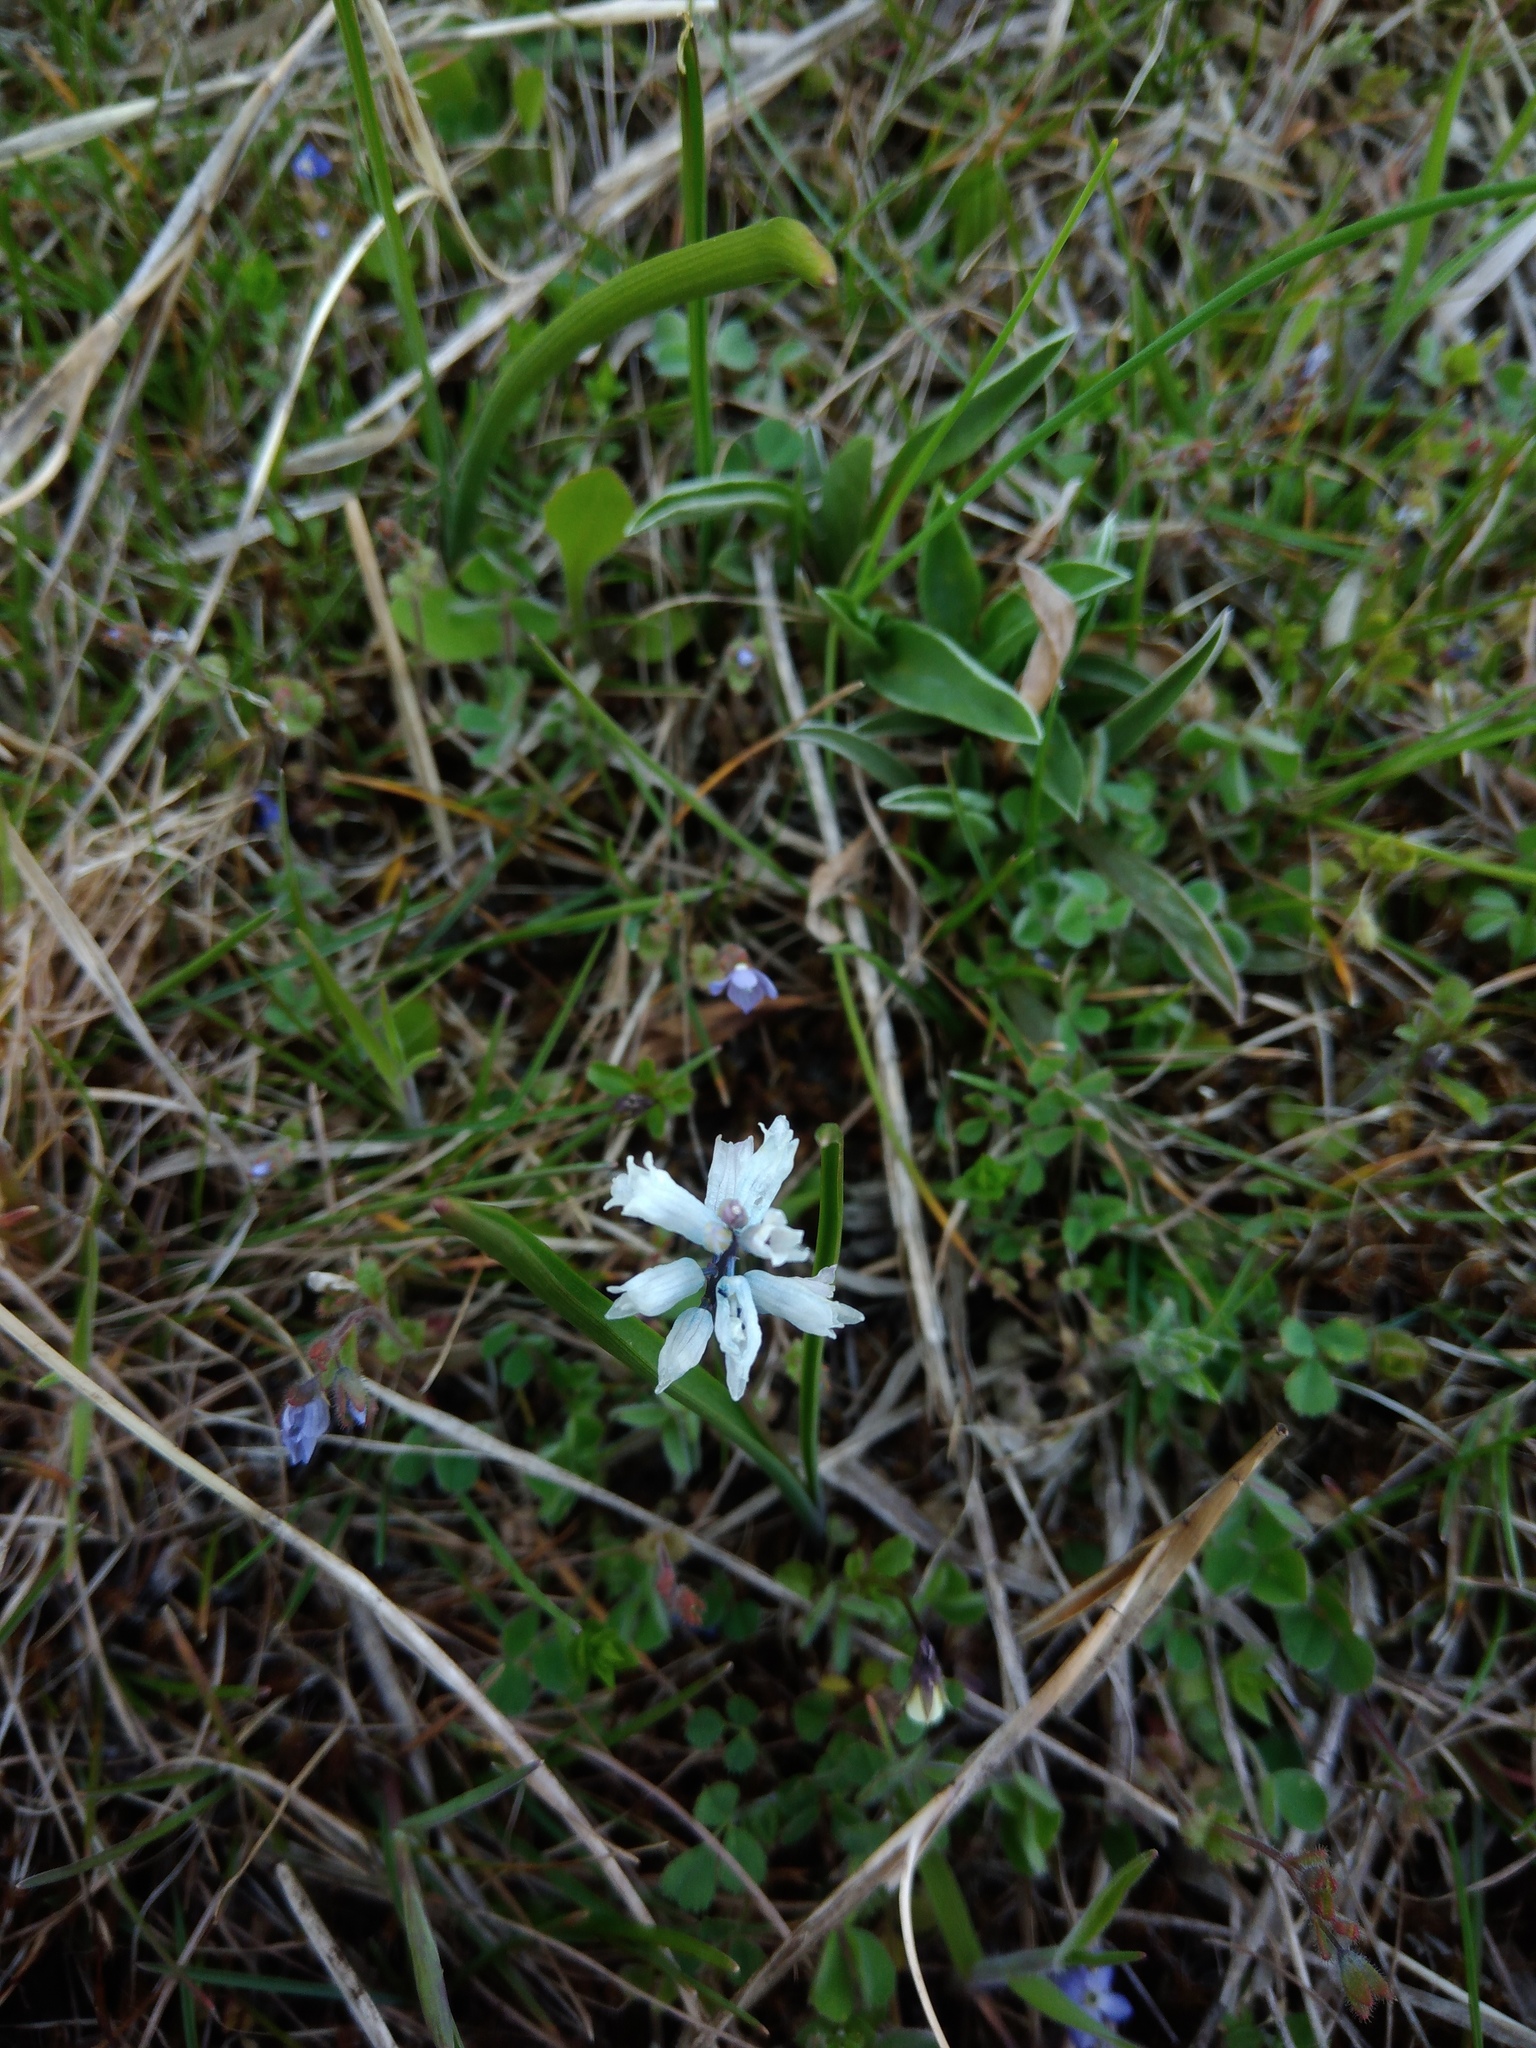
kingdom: Plantae
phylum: Tracheophyta
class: Liliopsida
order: Asparagales
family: Asparagaceae
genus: Hyacinthella
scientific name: Hyacinthella leucophaea
